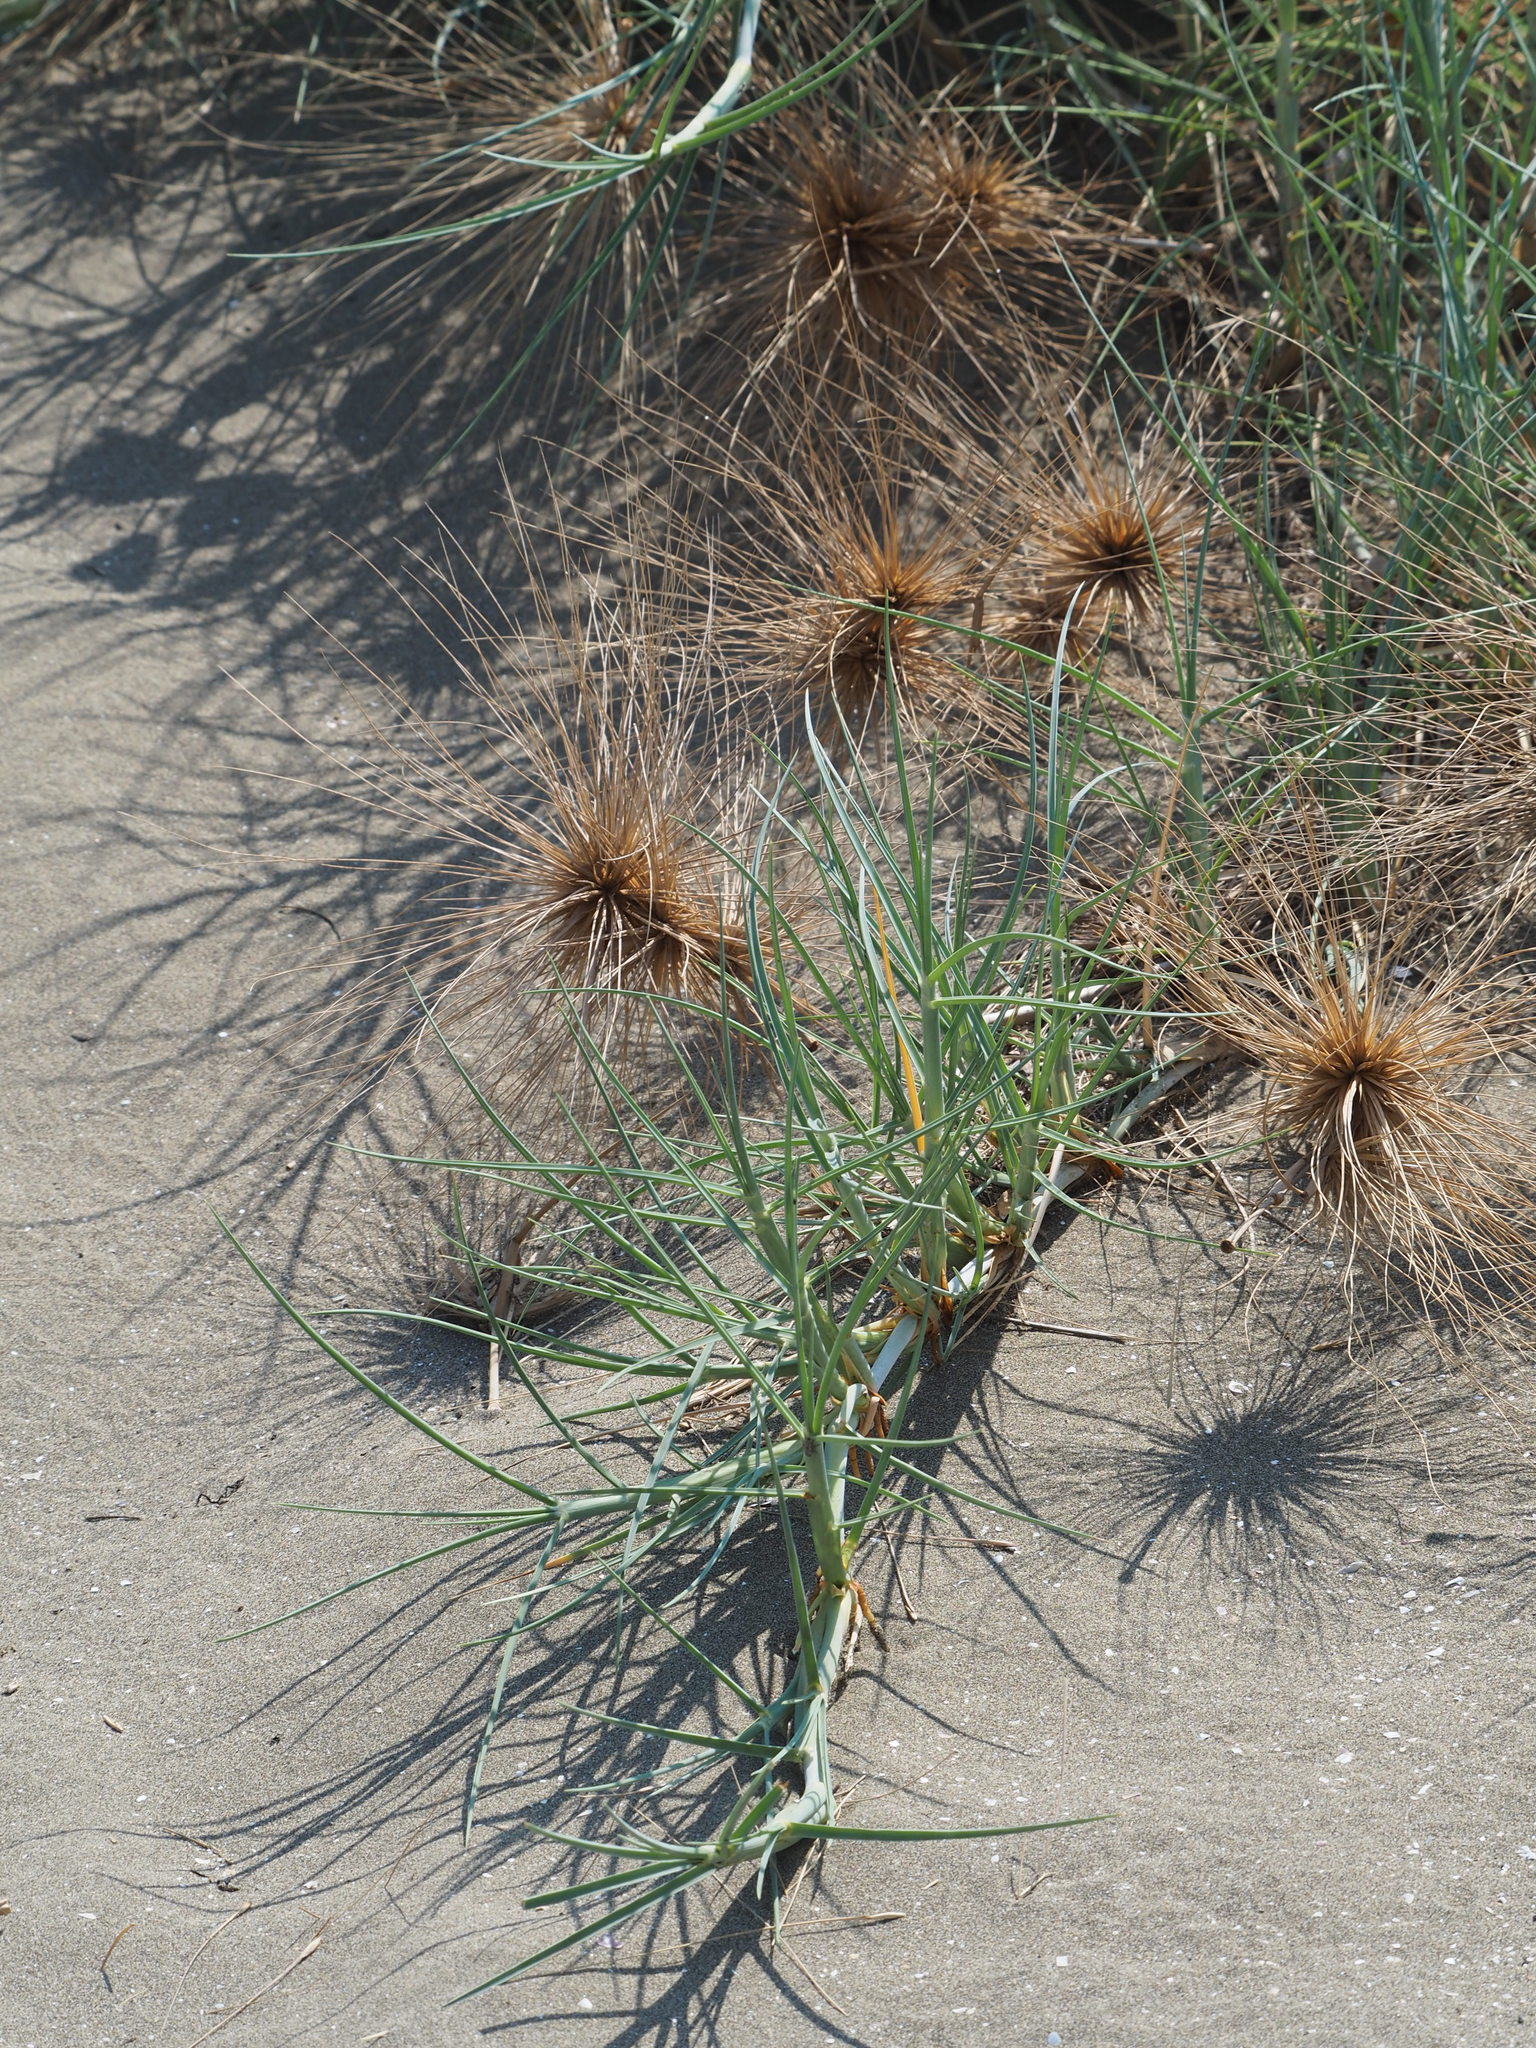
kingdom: Plantae
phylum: Tracheophyta
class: Liliopsida
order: Poales
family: Poaceae
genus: Spinifex
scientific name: Spinifex littoreus
